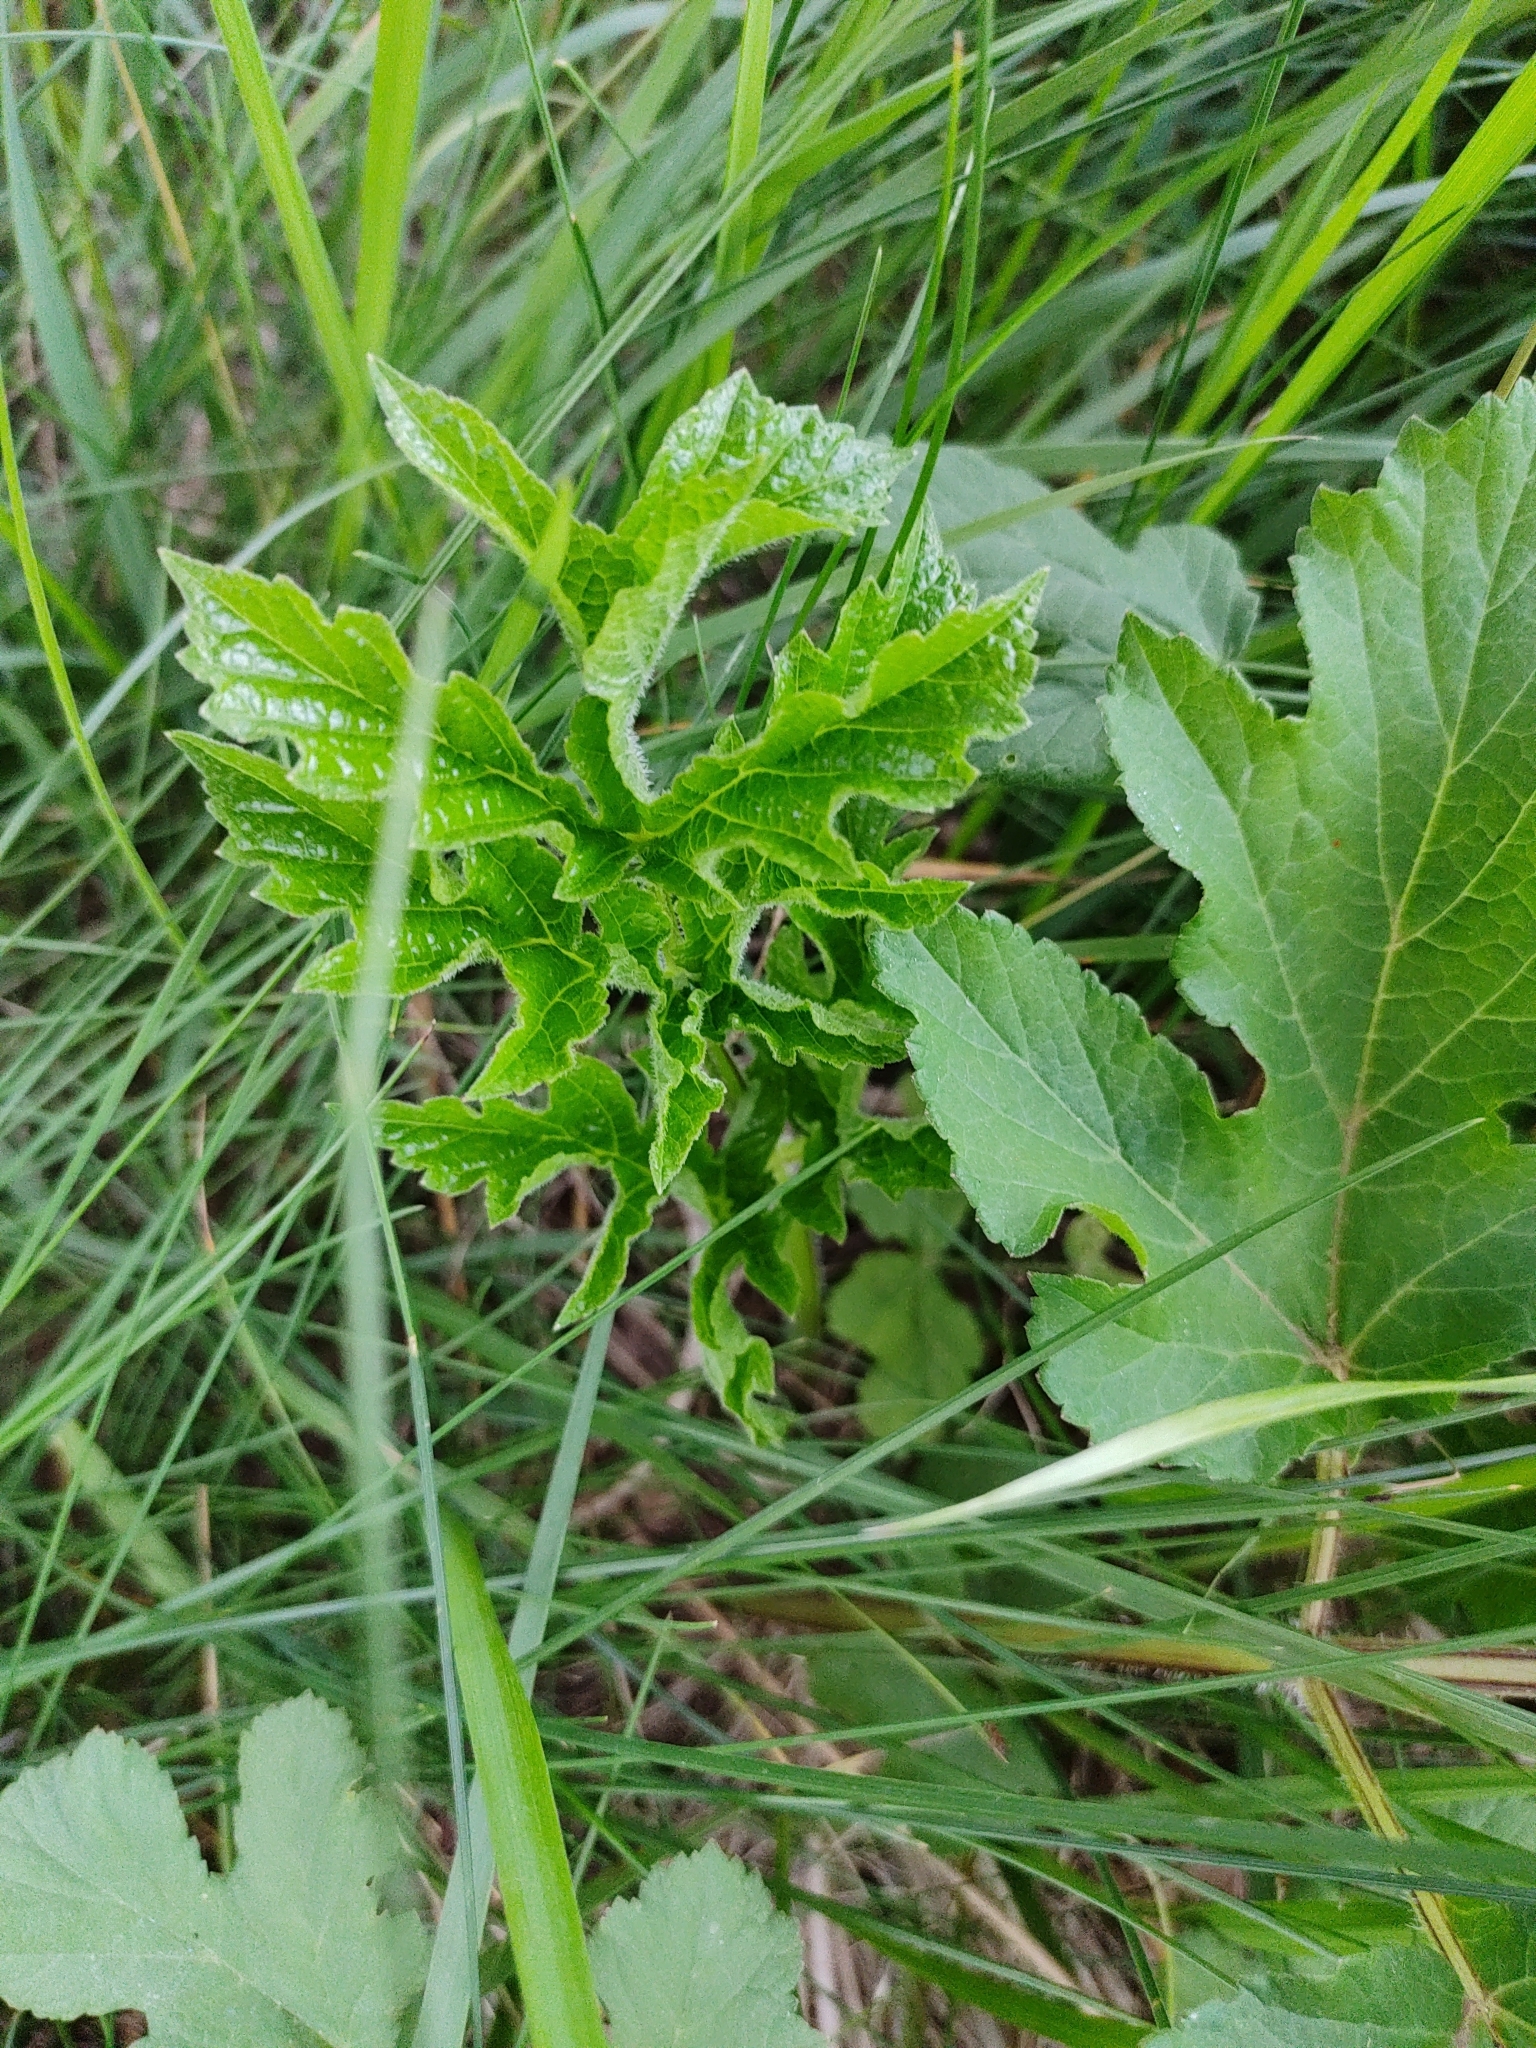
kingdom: Plantae
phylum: Tracheophyta
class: Magnoliopsida
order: Apiales
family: Apiaceae
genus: Heracleum
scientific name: Heracleum sphondylium
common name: Hogweed
